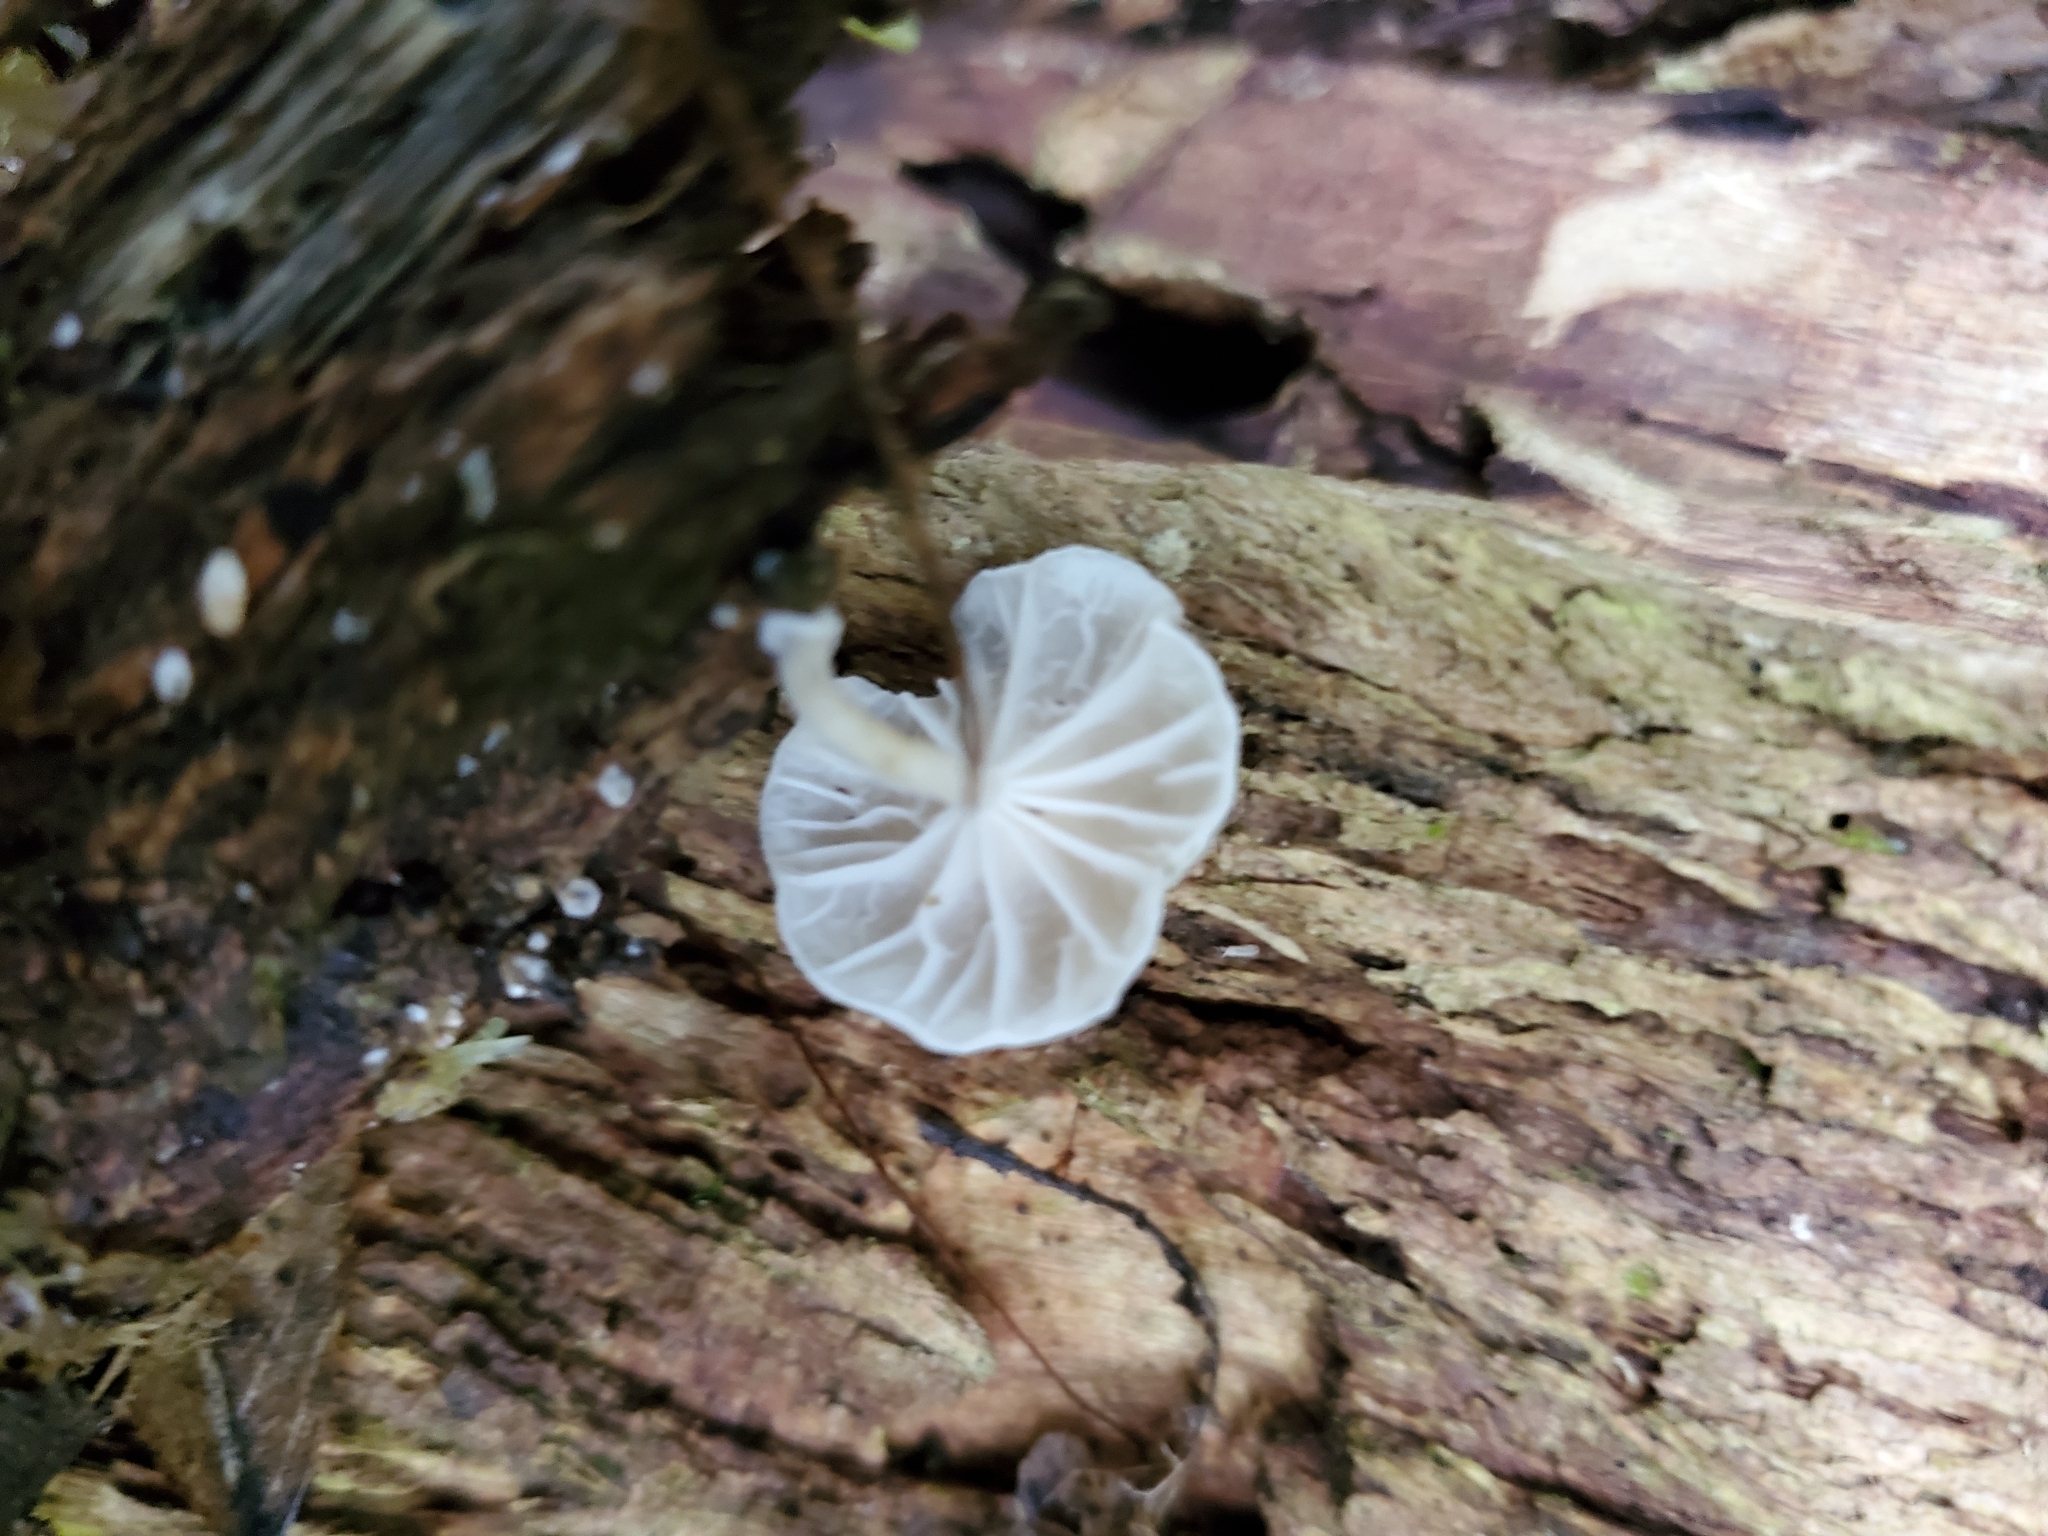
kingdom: Fungi
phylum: Basidiomycota
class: Agaricomycetes
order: Agaricales
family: Omphalotaceae
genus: Marasmiellus
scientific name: Marasmiellus candidus
